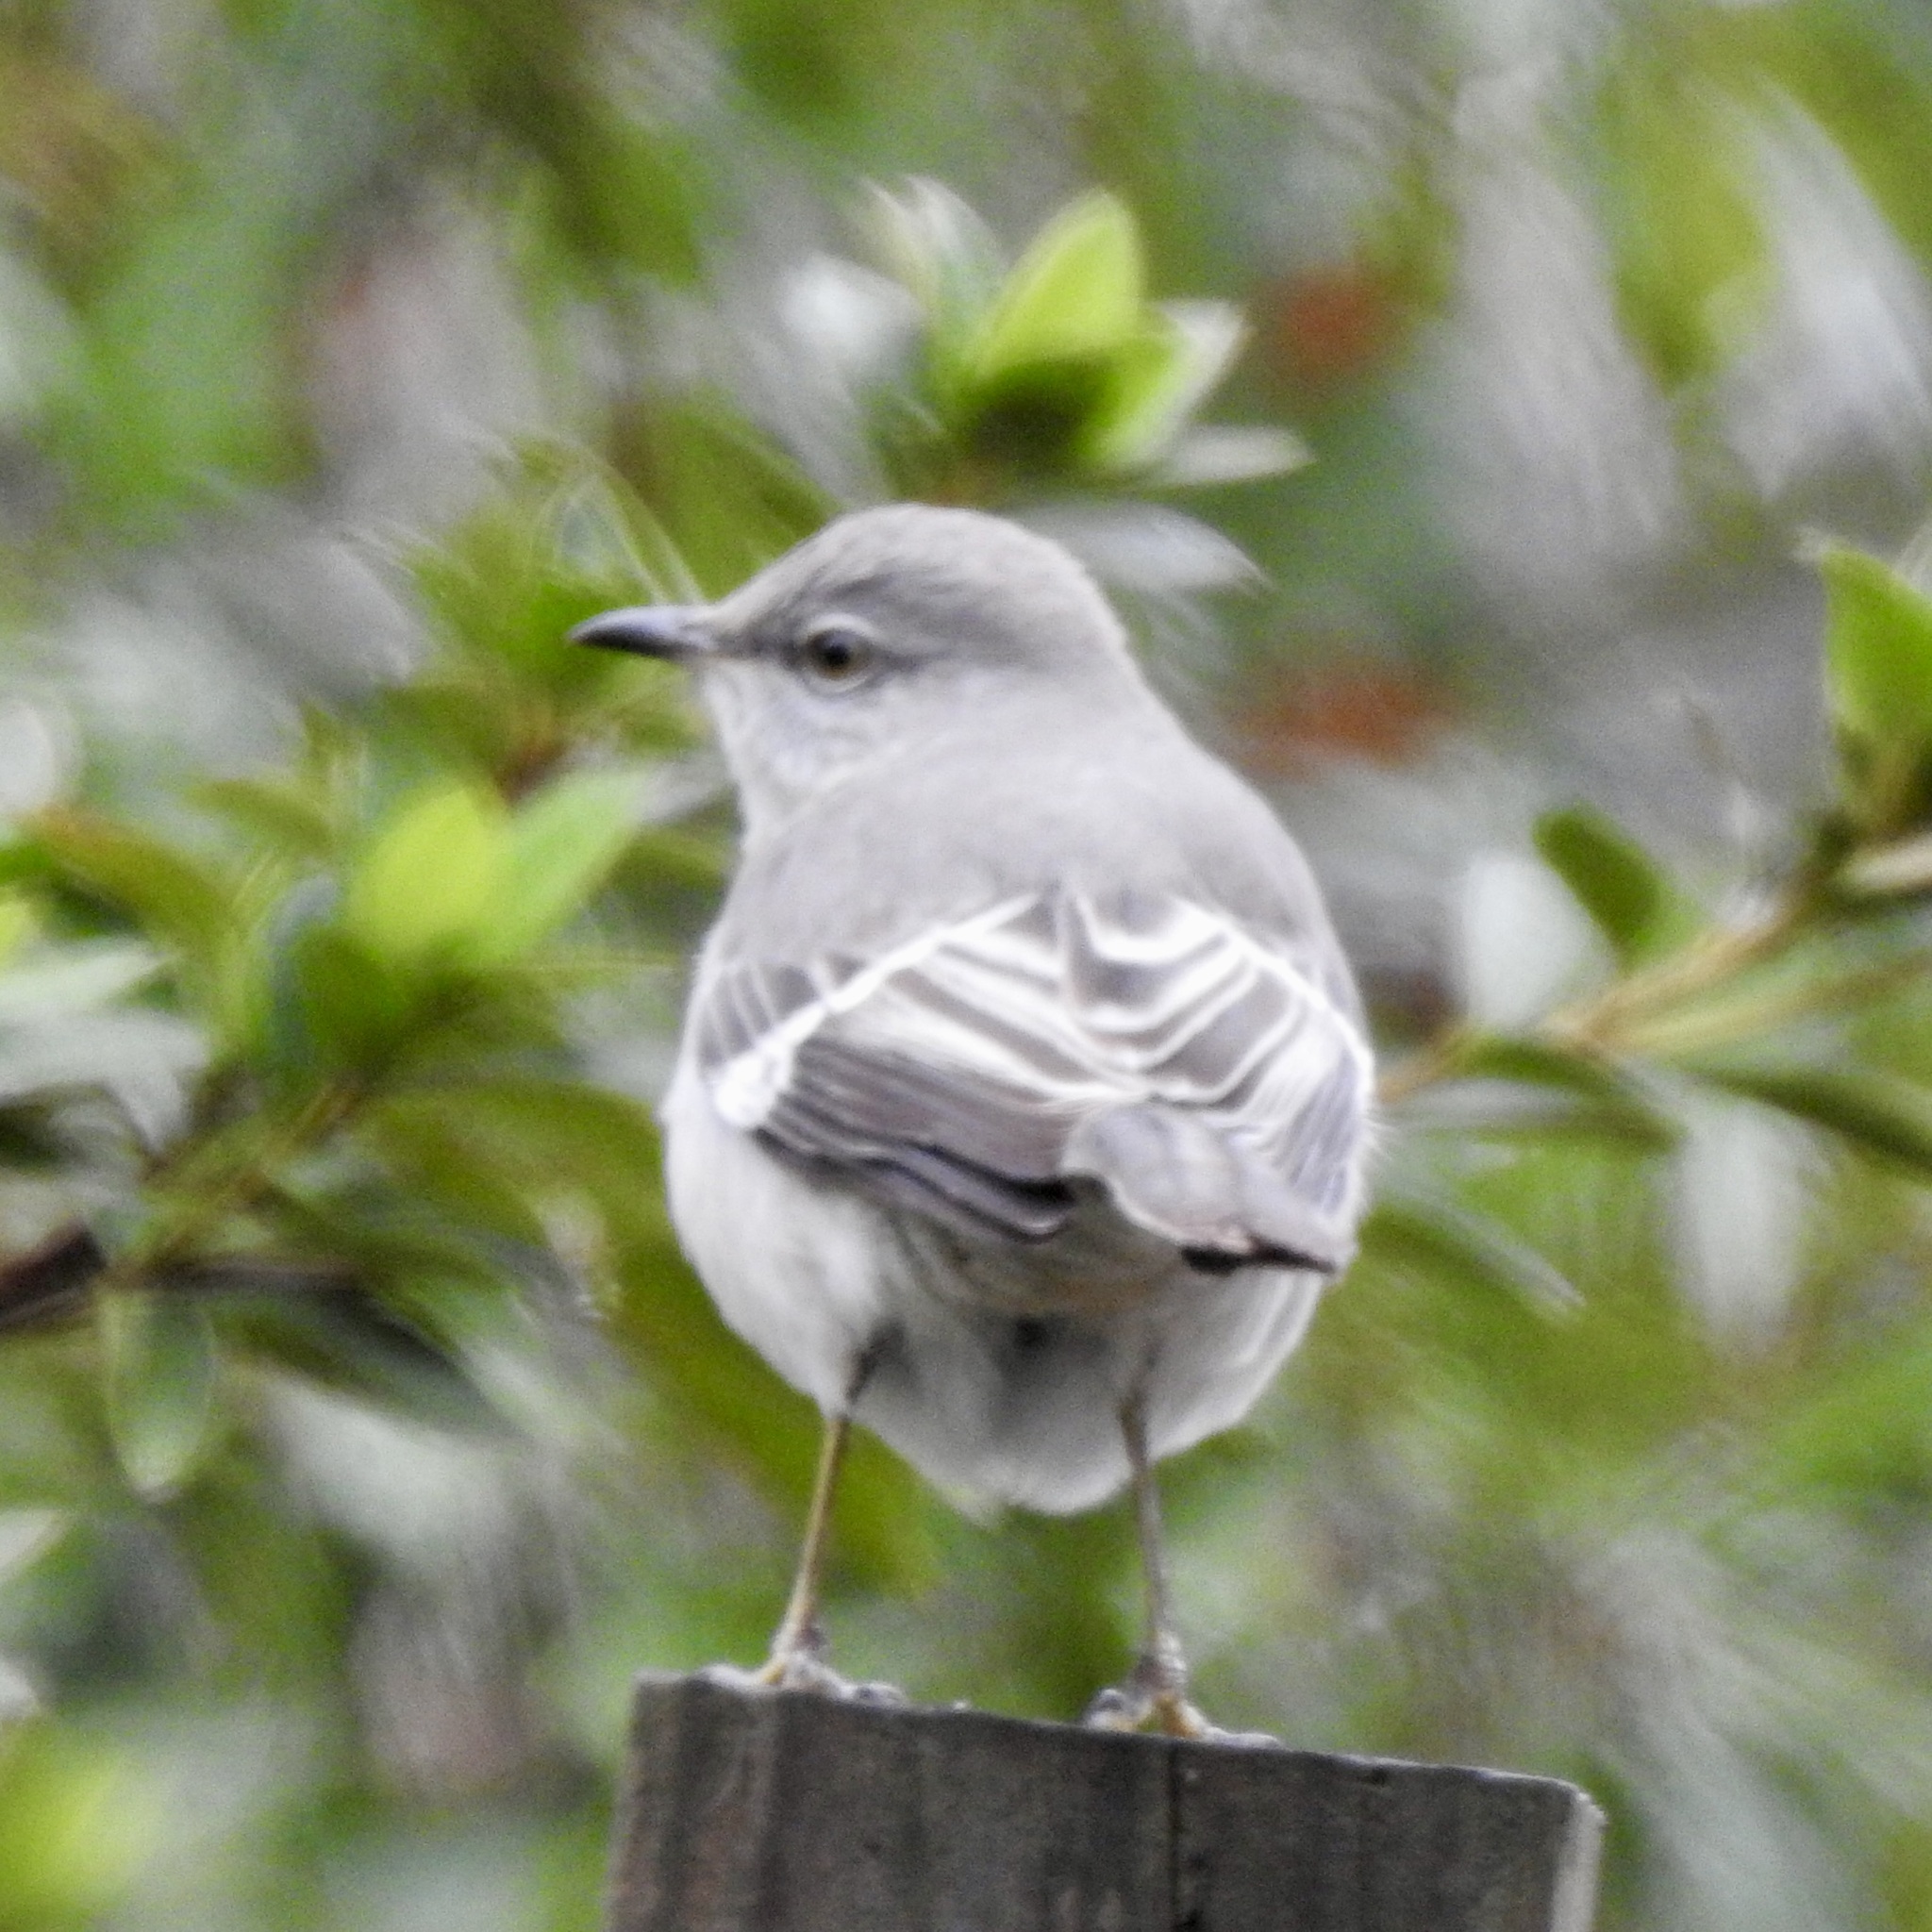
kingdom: Animalia
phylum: Chordata
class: Aves
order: Passeriformes
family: Mimidae
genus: Mimus
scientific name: Mimus polyglottos
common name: Northern mockingbird
